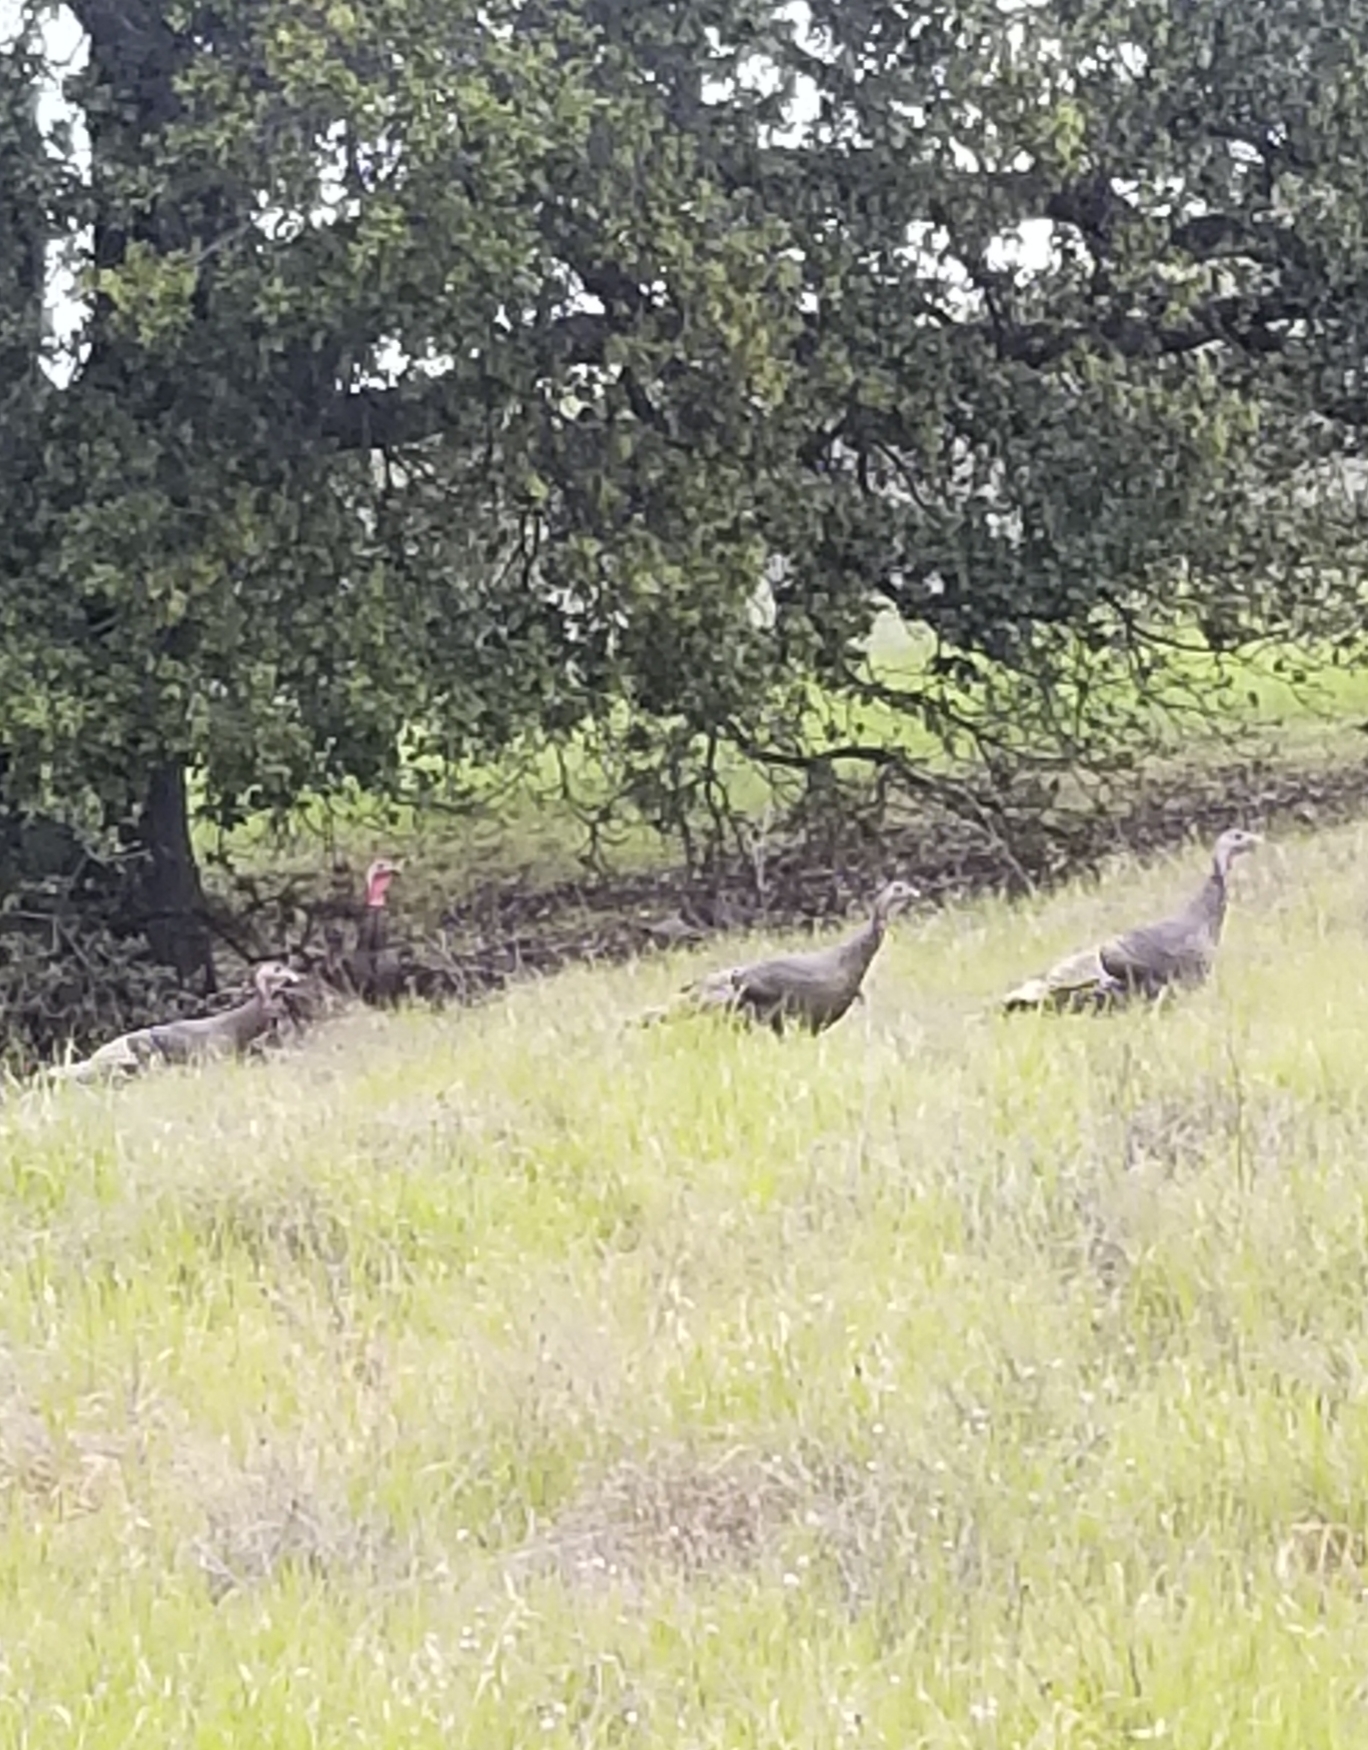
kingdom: Animalia
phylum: Chordata
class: Aves
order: Galliformes
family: Phasianidae
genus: Meleagris
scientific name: Meleagris gallopavo
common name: Wild turkey
